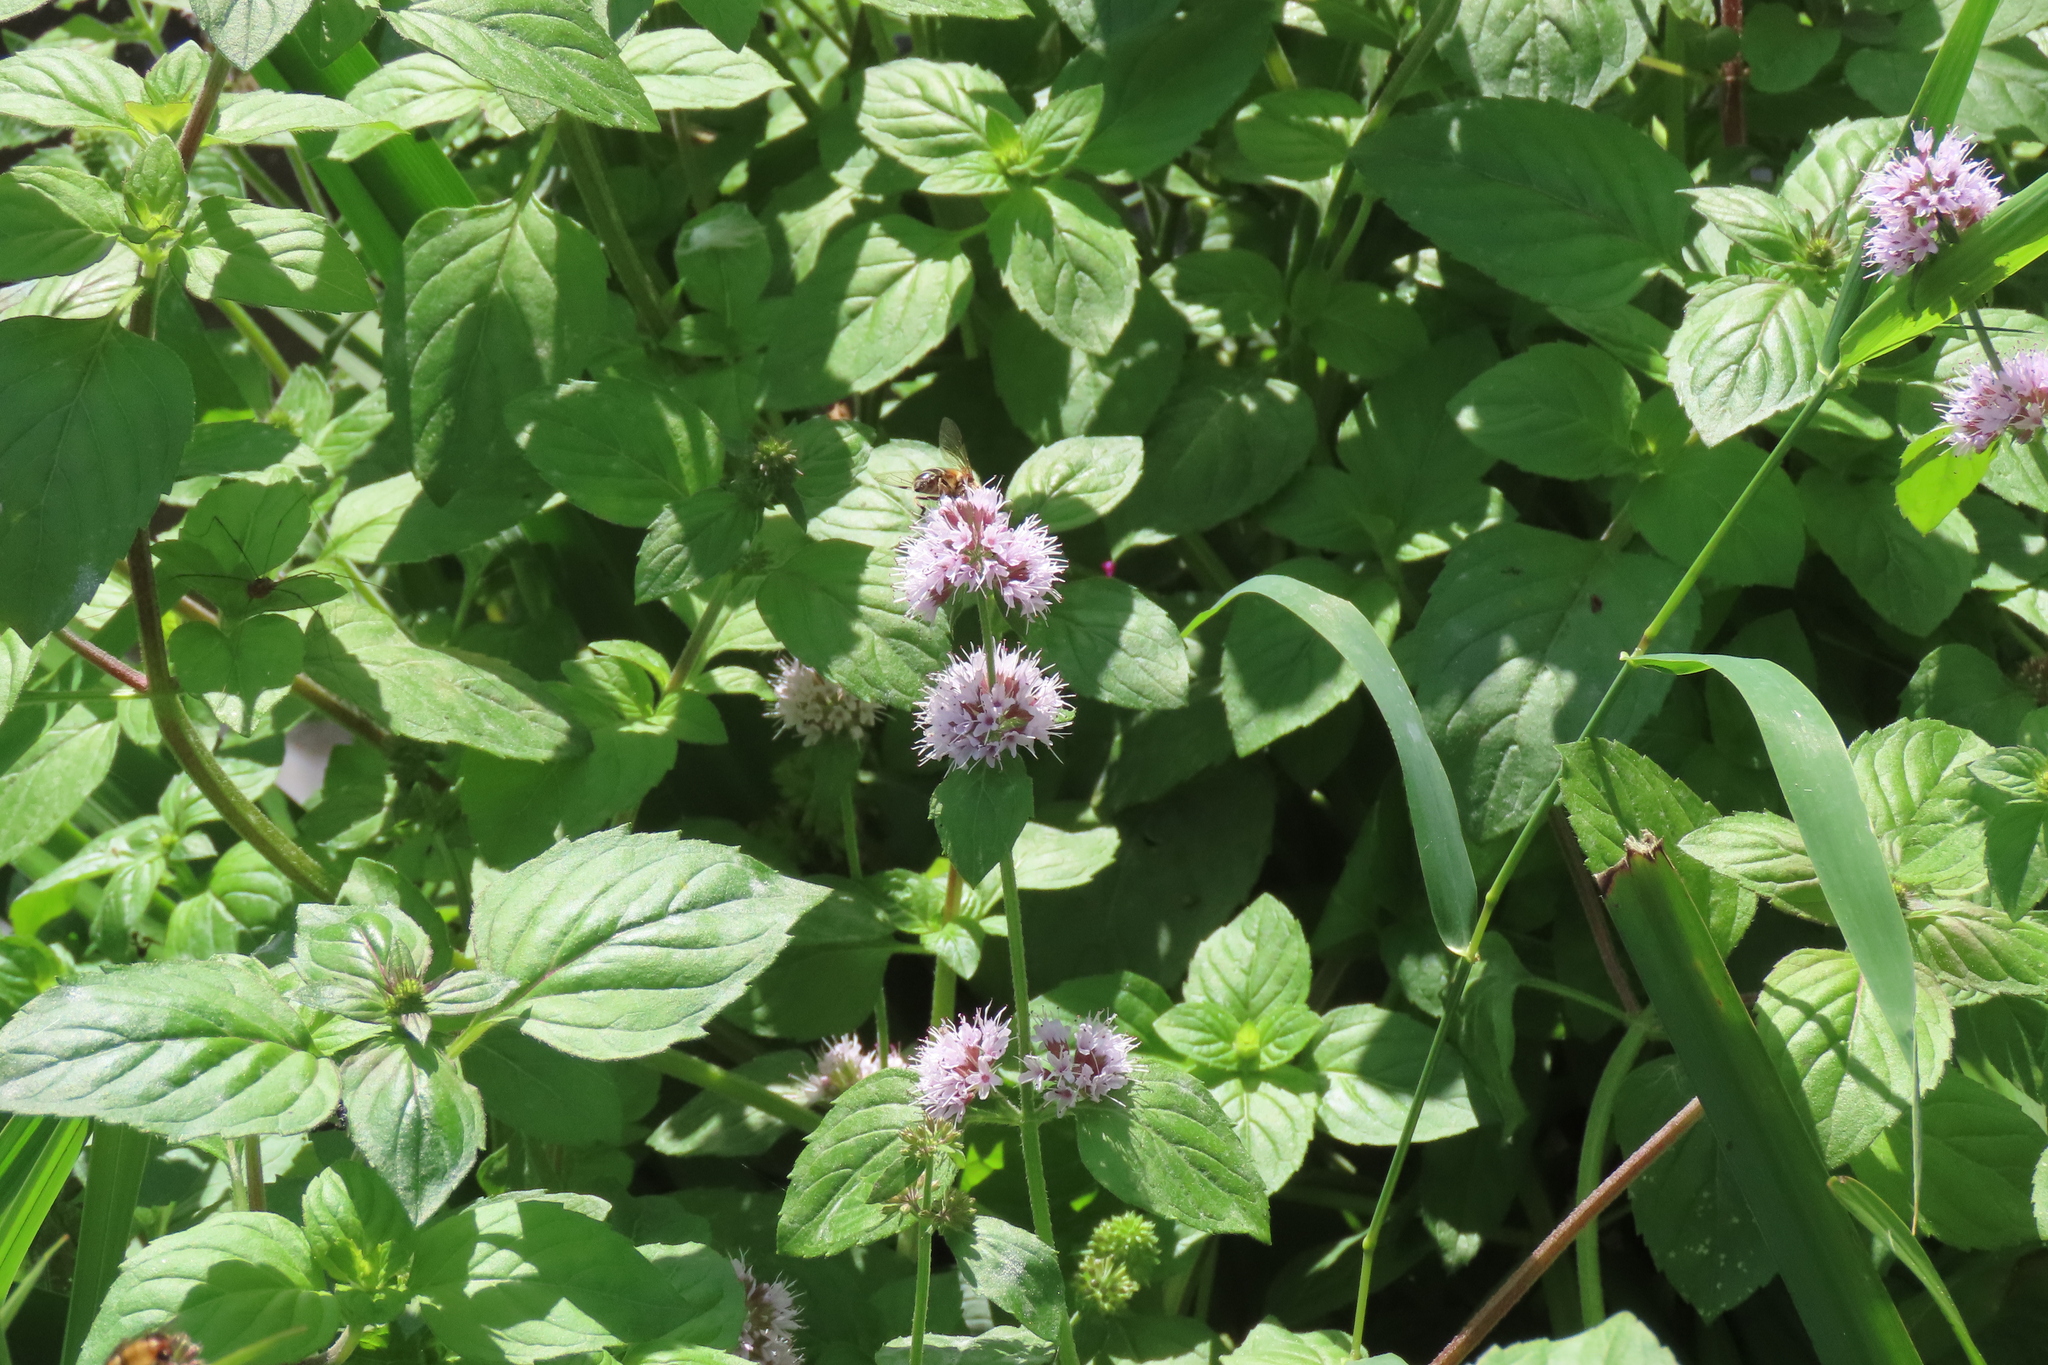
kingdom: Plantae
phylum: Tracheophyta
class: Magnoliopsida
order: Lamiales
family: Lamiaceae
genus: Mentha
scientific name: Mentha aquatica
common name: Water mint
